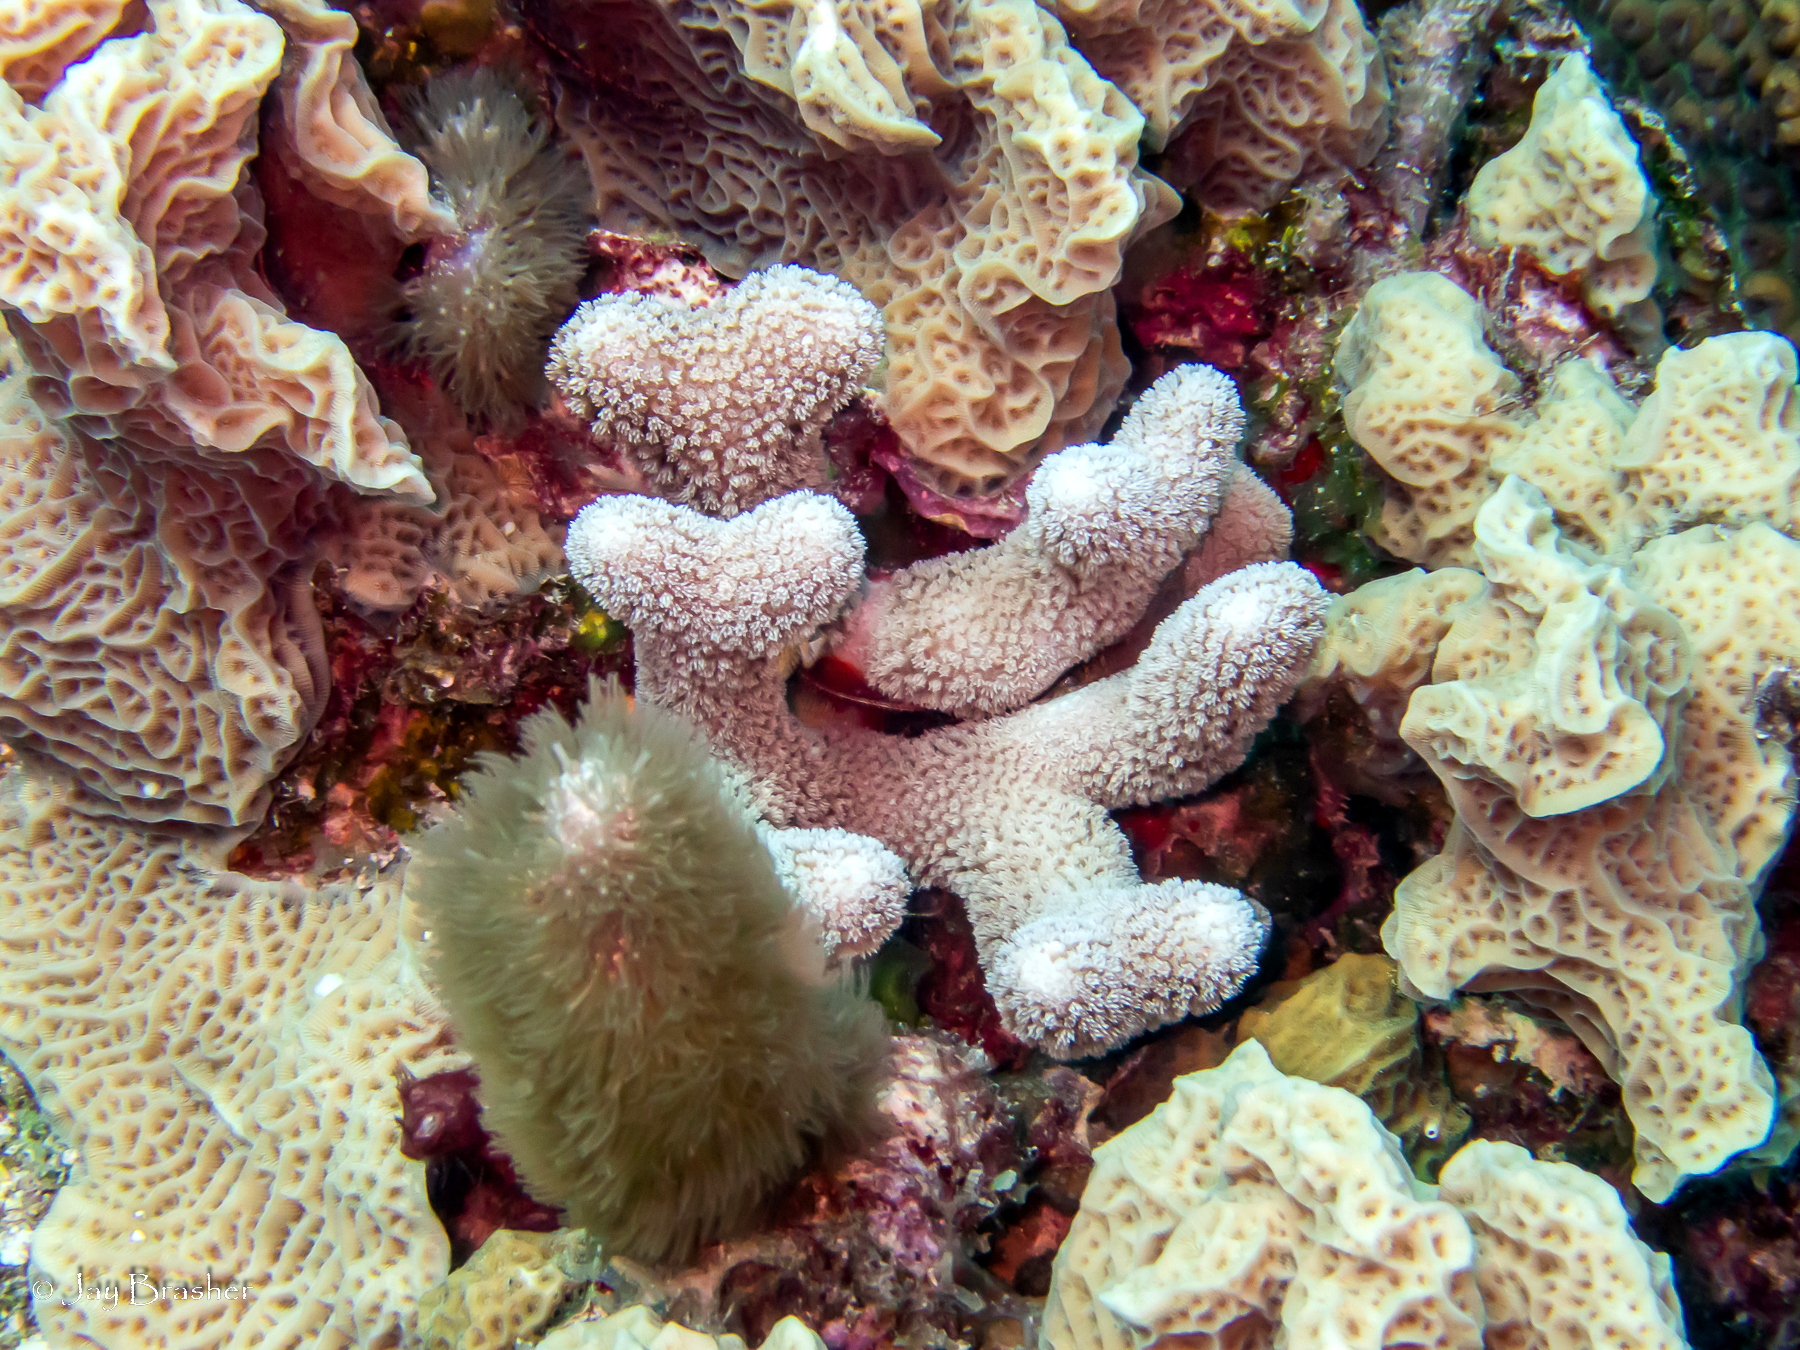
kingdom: Animalia
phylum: Cnidaria
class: Anthozoa
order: Scleractinia
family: Poritidae
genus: Porites
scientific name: Porites porites
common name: Finger coral
